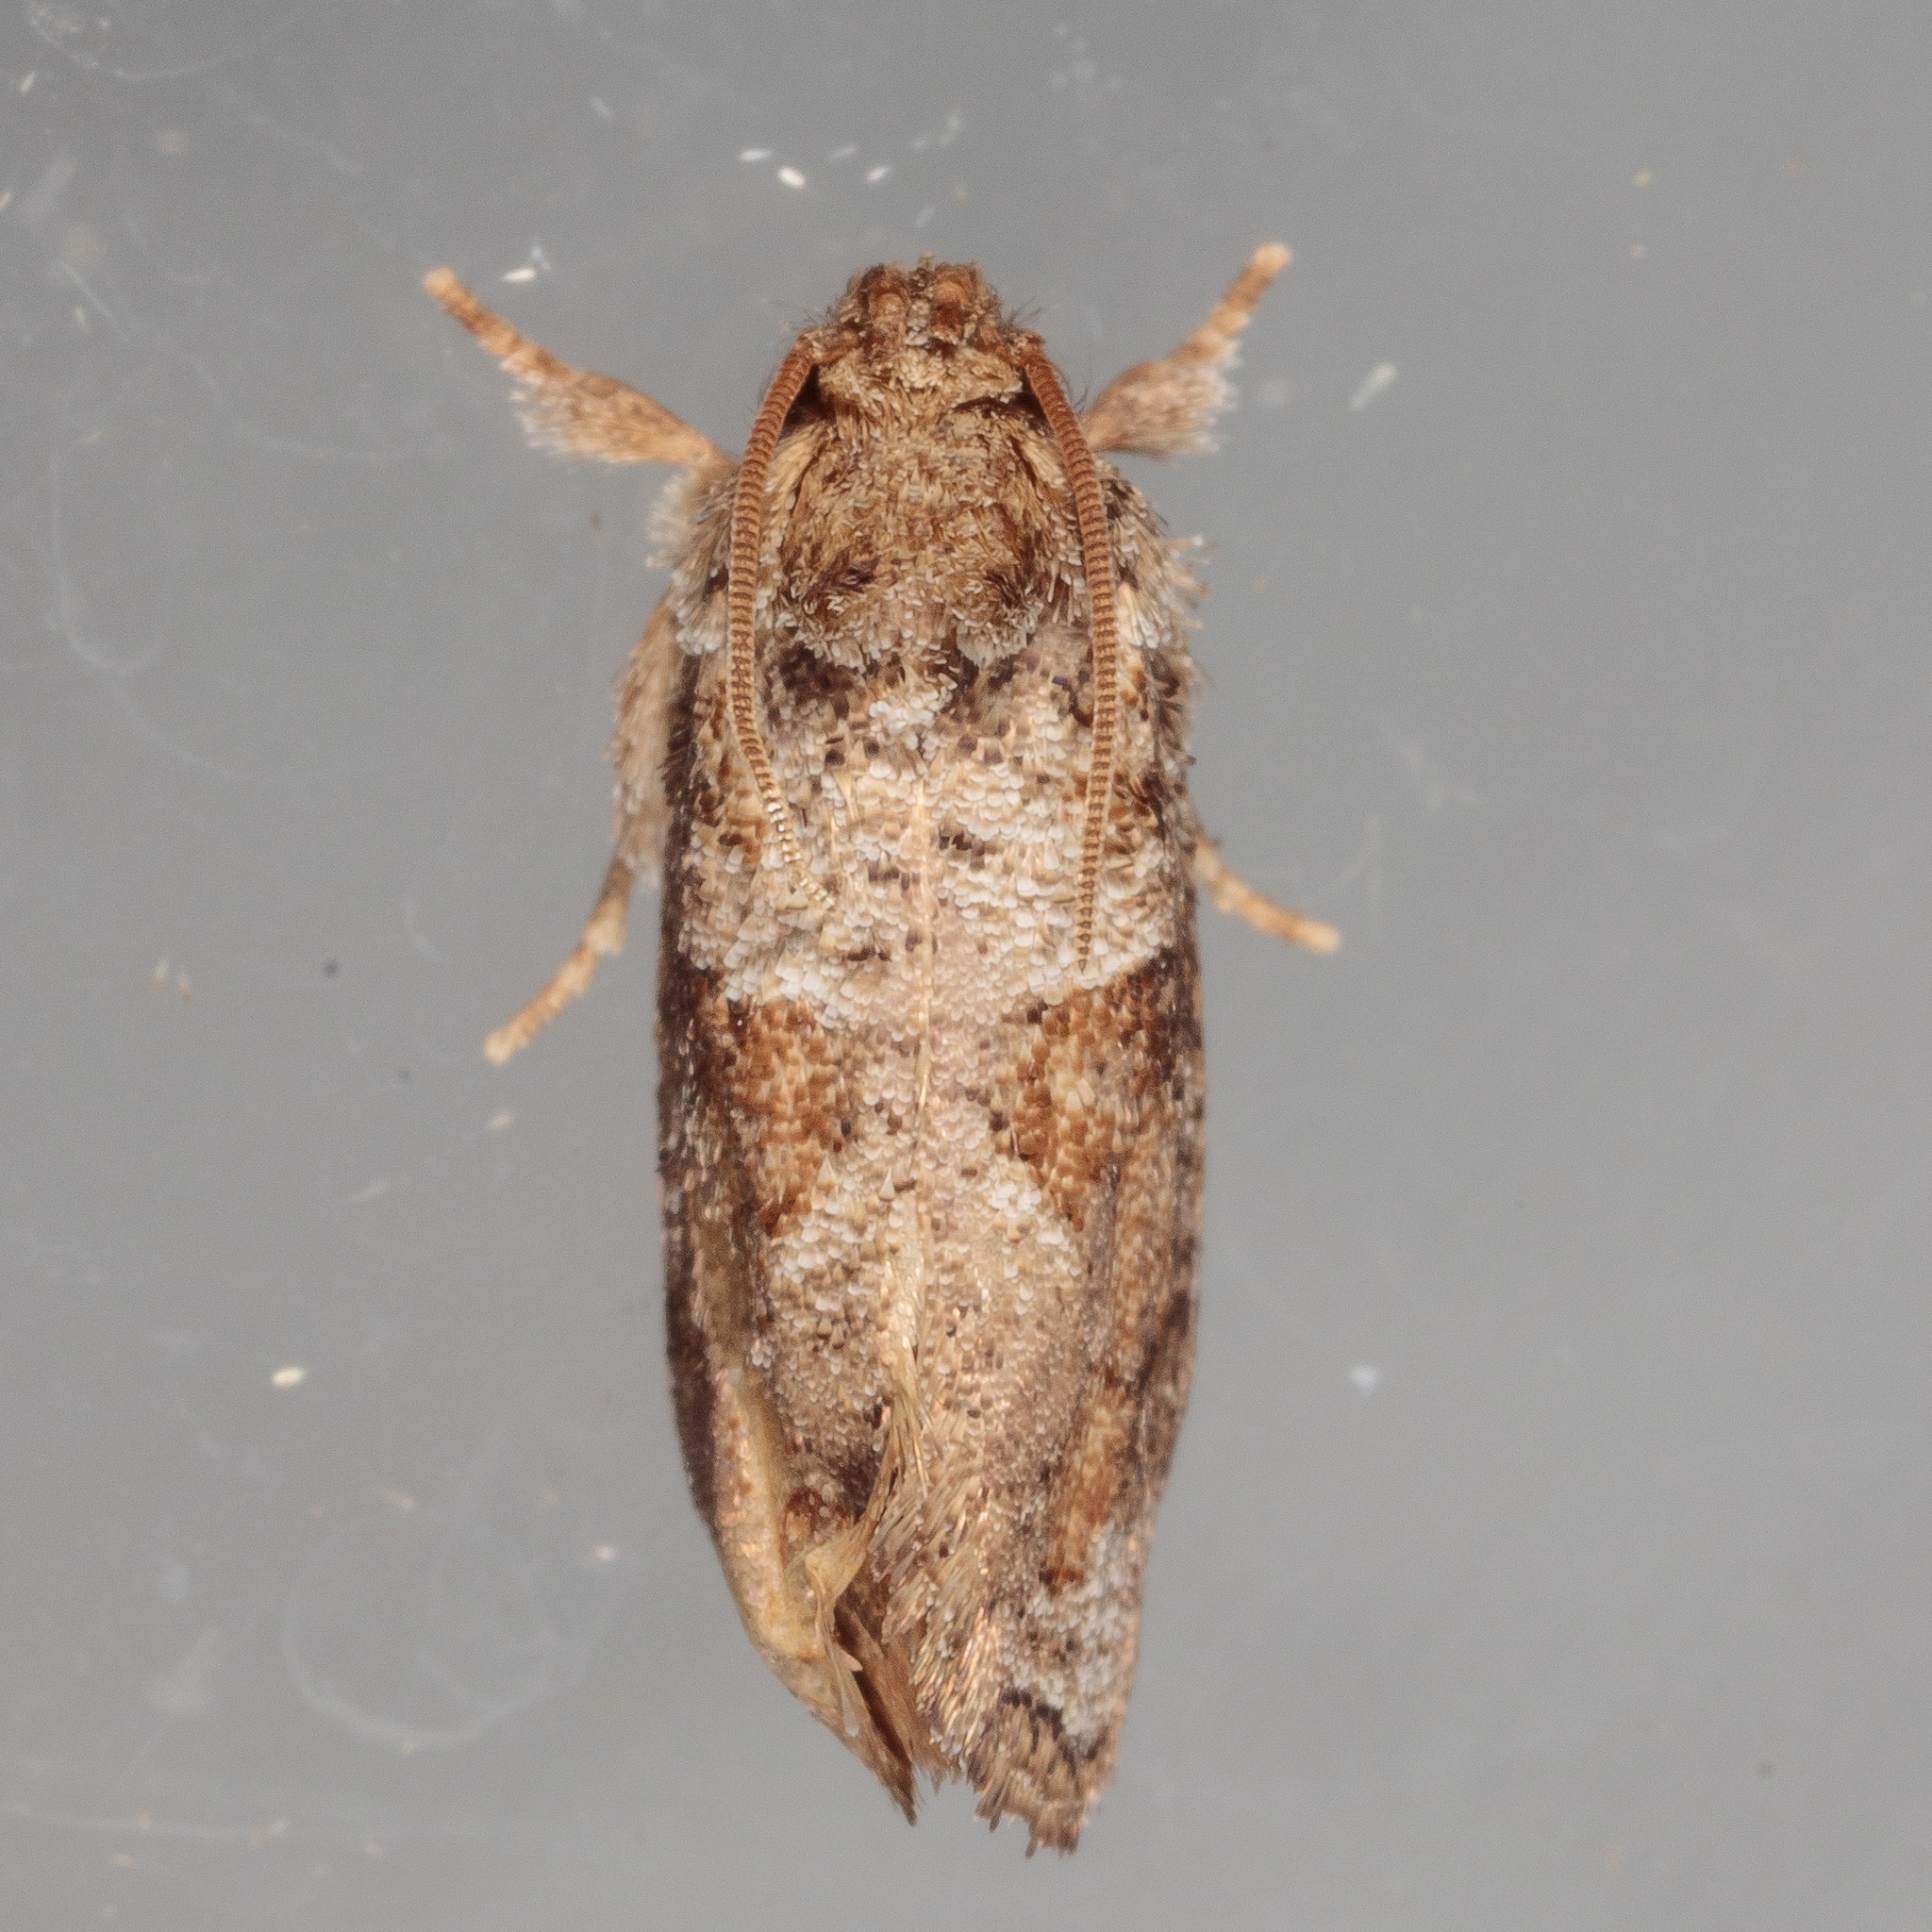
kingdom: Animalia
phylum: Arthropoda
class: Insecta
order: Lepidoptera
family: Tineidae
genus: Acrolophus
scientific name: Acrolophus piger
